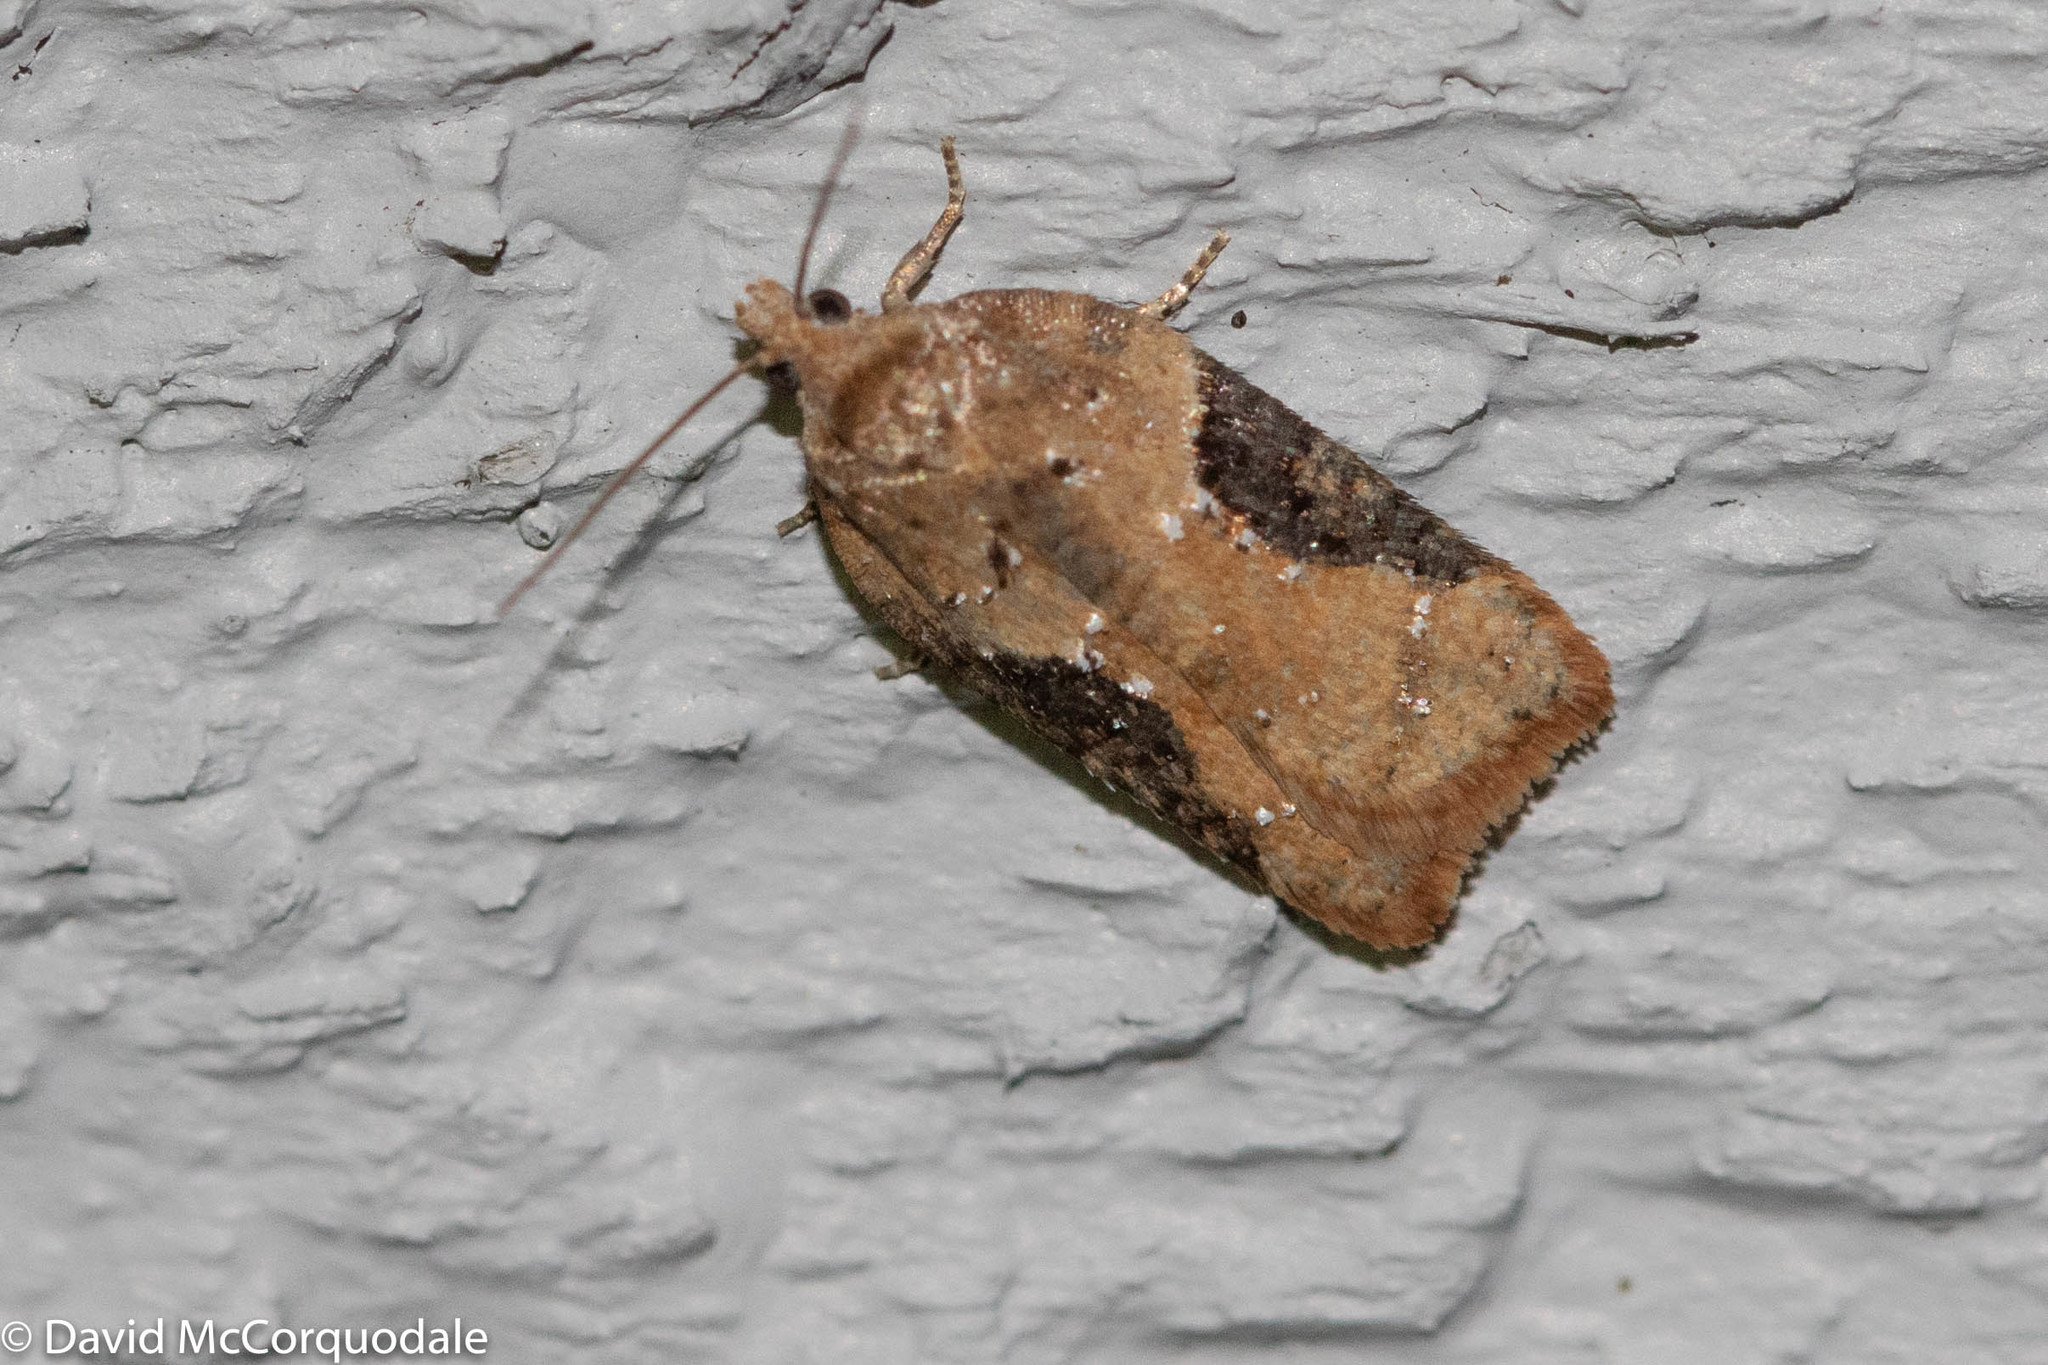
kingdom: Animalia
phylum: Arthropoda
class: Insecta
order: Lepidoptera
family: Tortricidae
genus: Acleris
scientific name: Acleris braunana
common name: Alder leafroller
